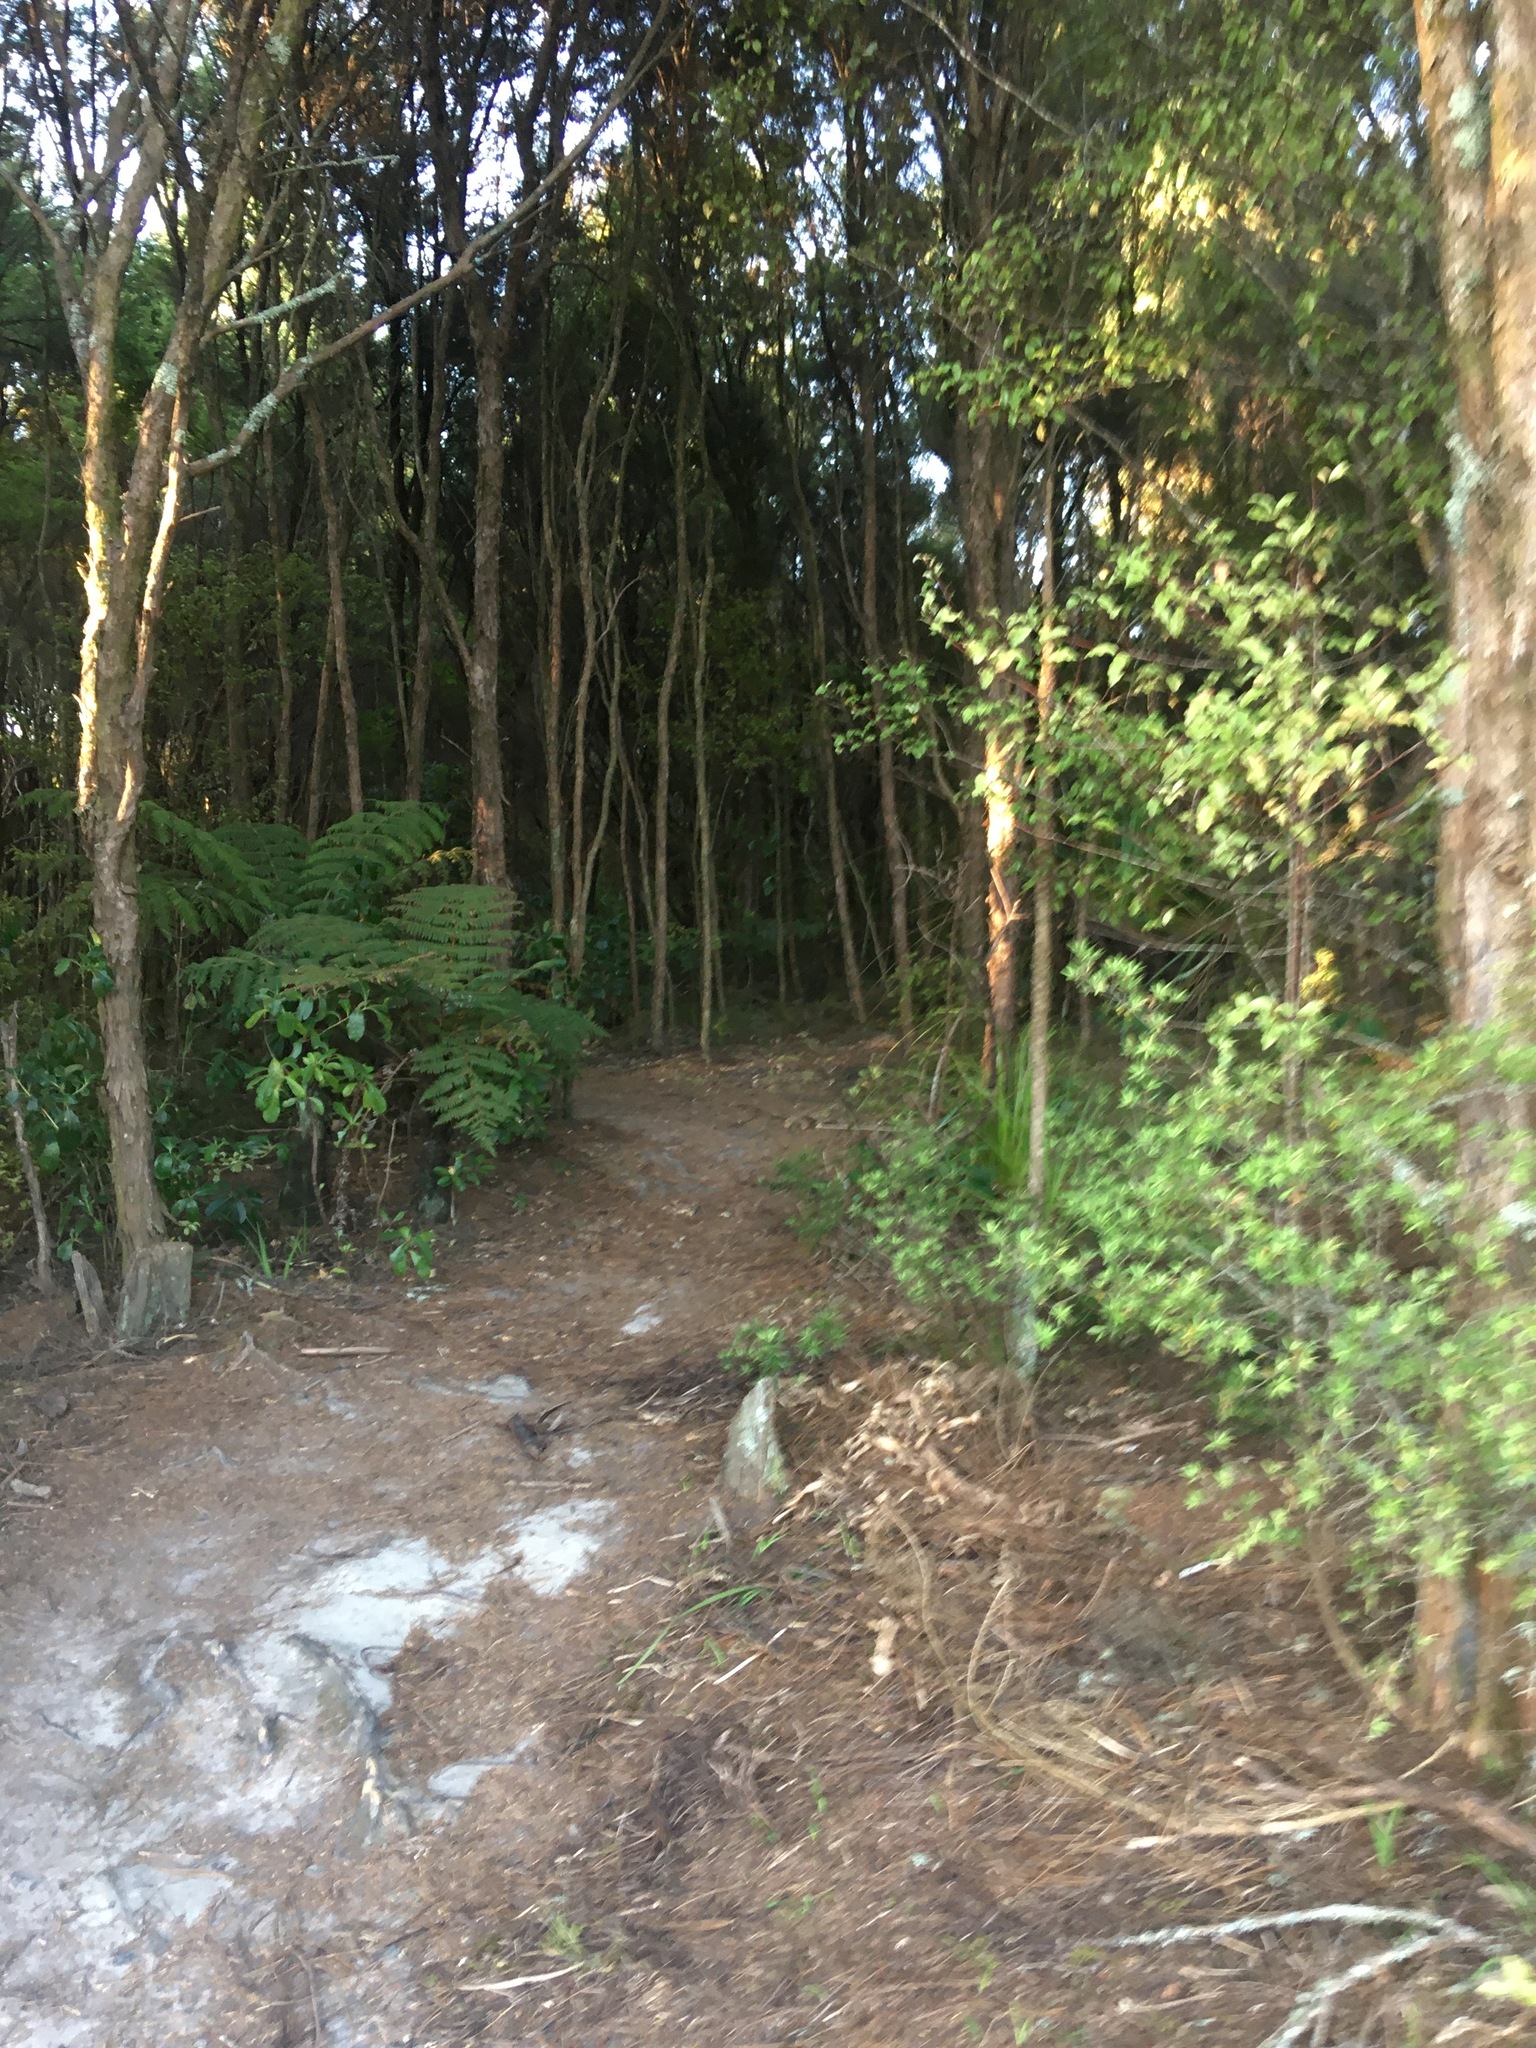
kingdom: Plantae
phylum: Tracheophyta
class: Magnoliopsida
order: Ericales
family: Primulaceae
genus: Myrsine
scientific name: Myrsine australis
